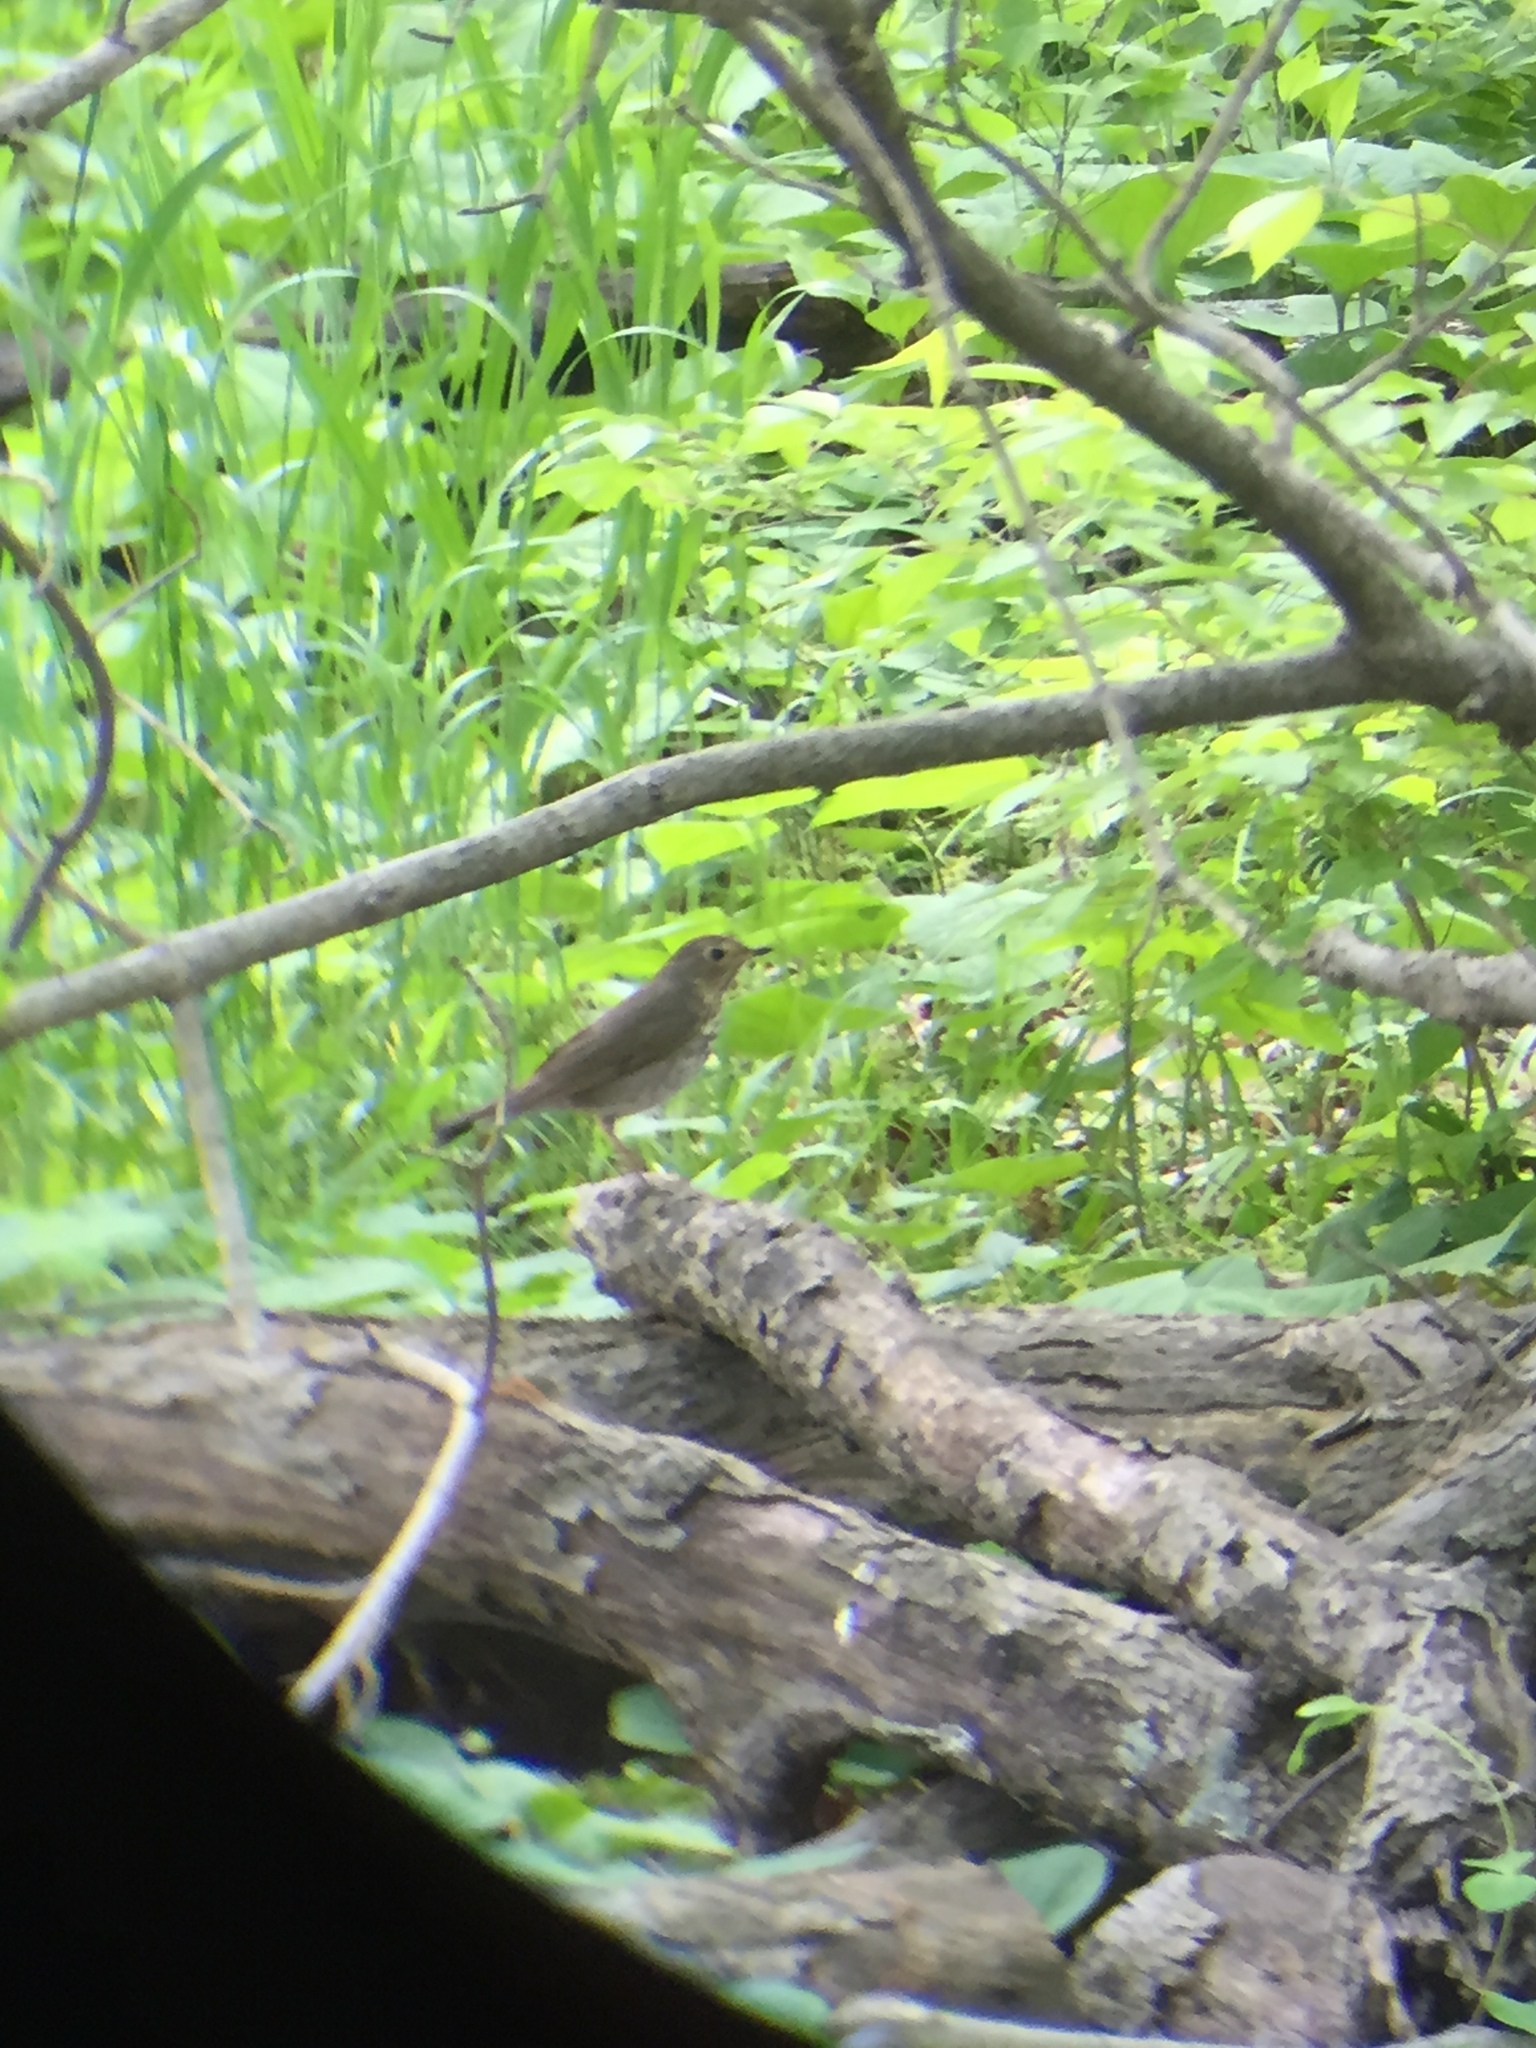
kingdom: Animalia
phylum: Chordata
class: Aves
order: Passeriformes
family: Turdidae
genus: Catharus
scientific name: Catharus ustulatus
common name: Swainson's thrush
